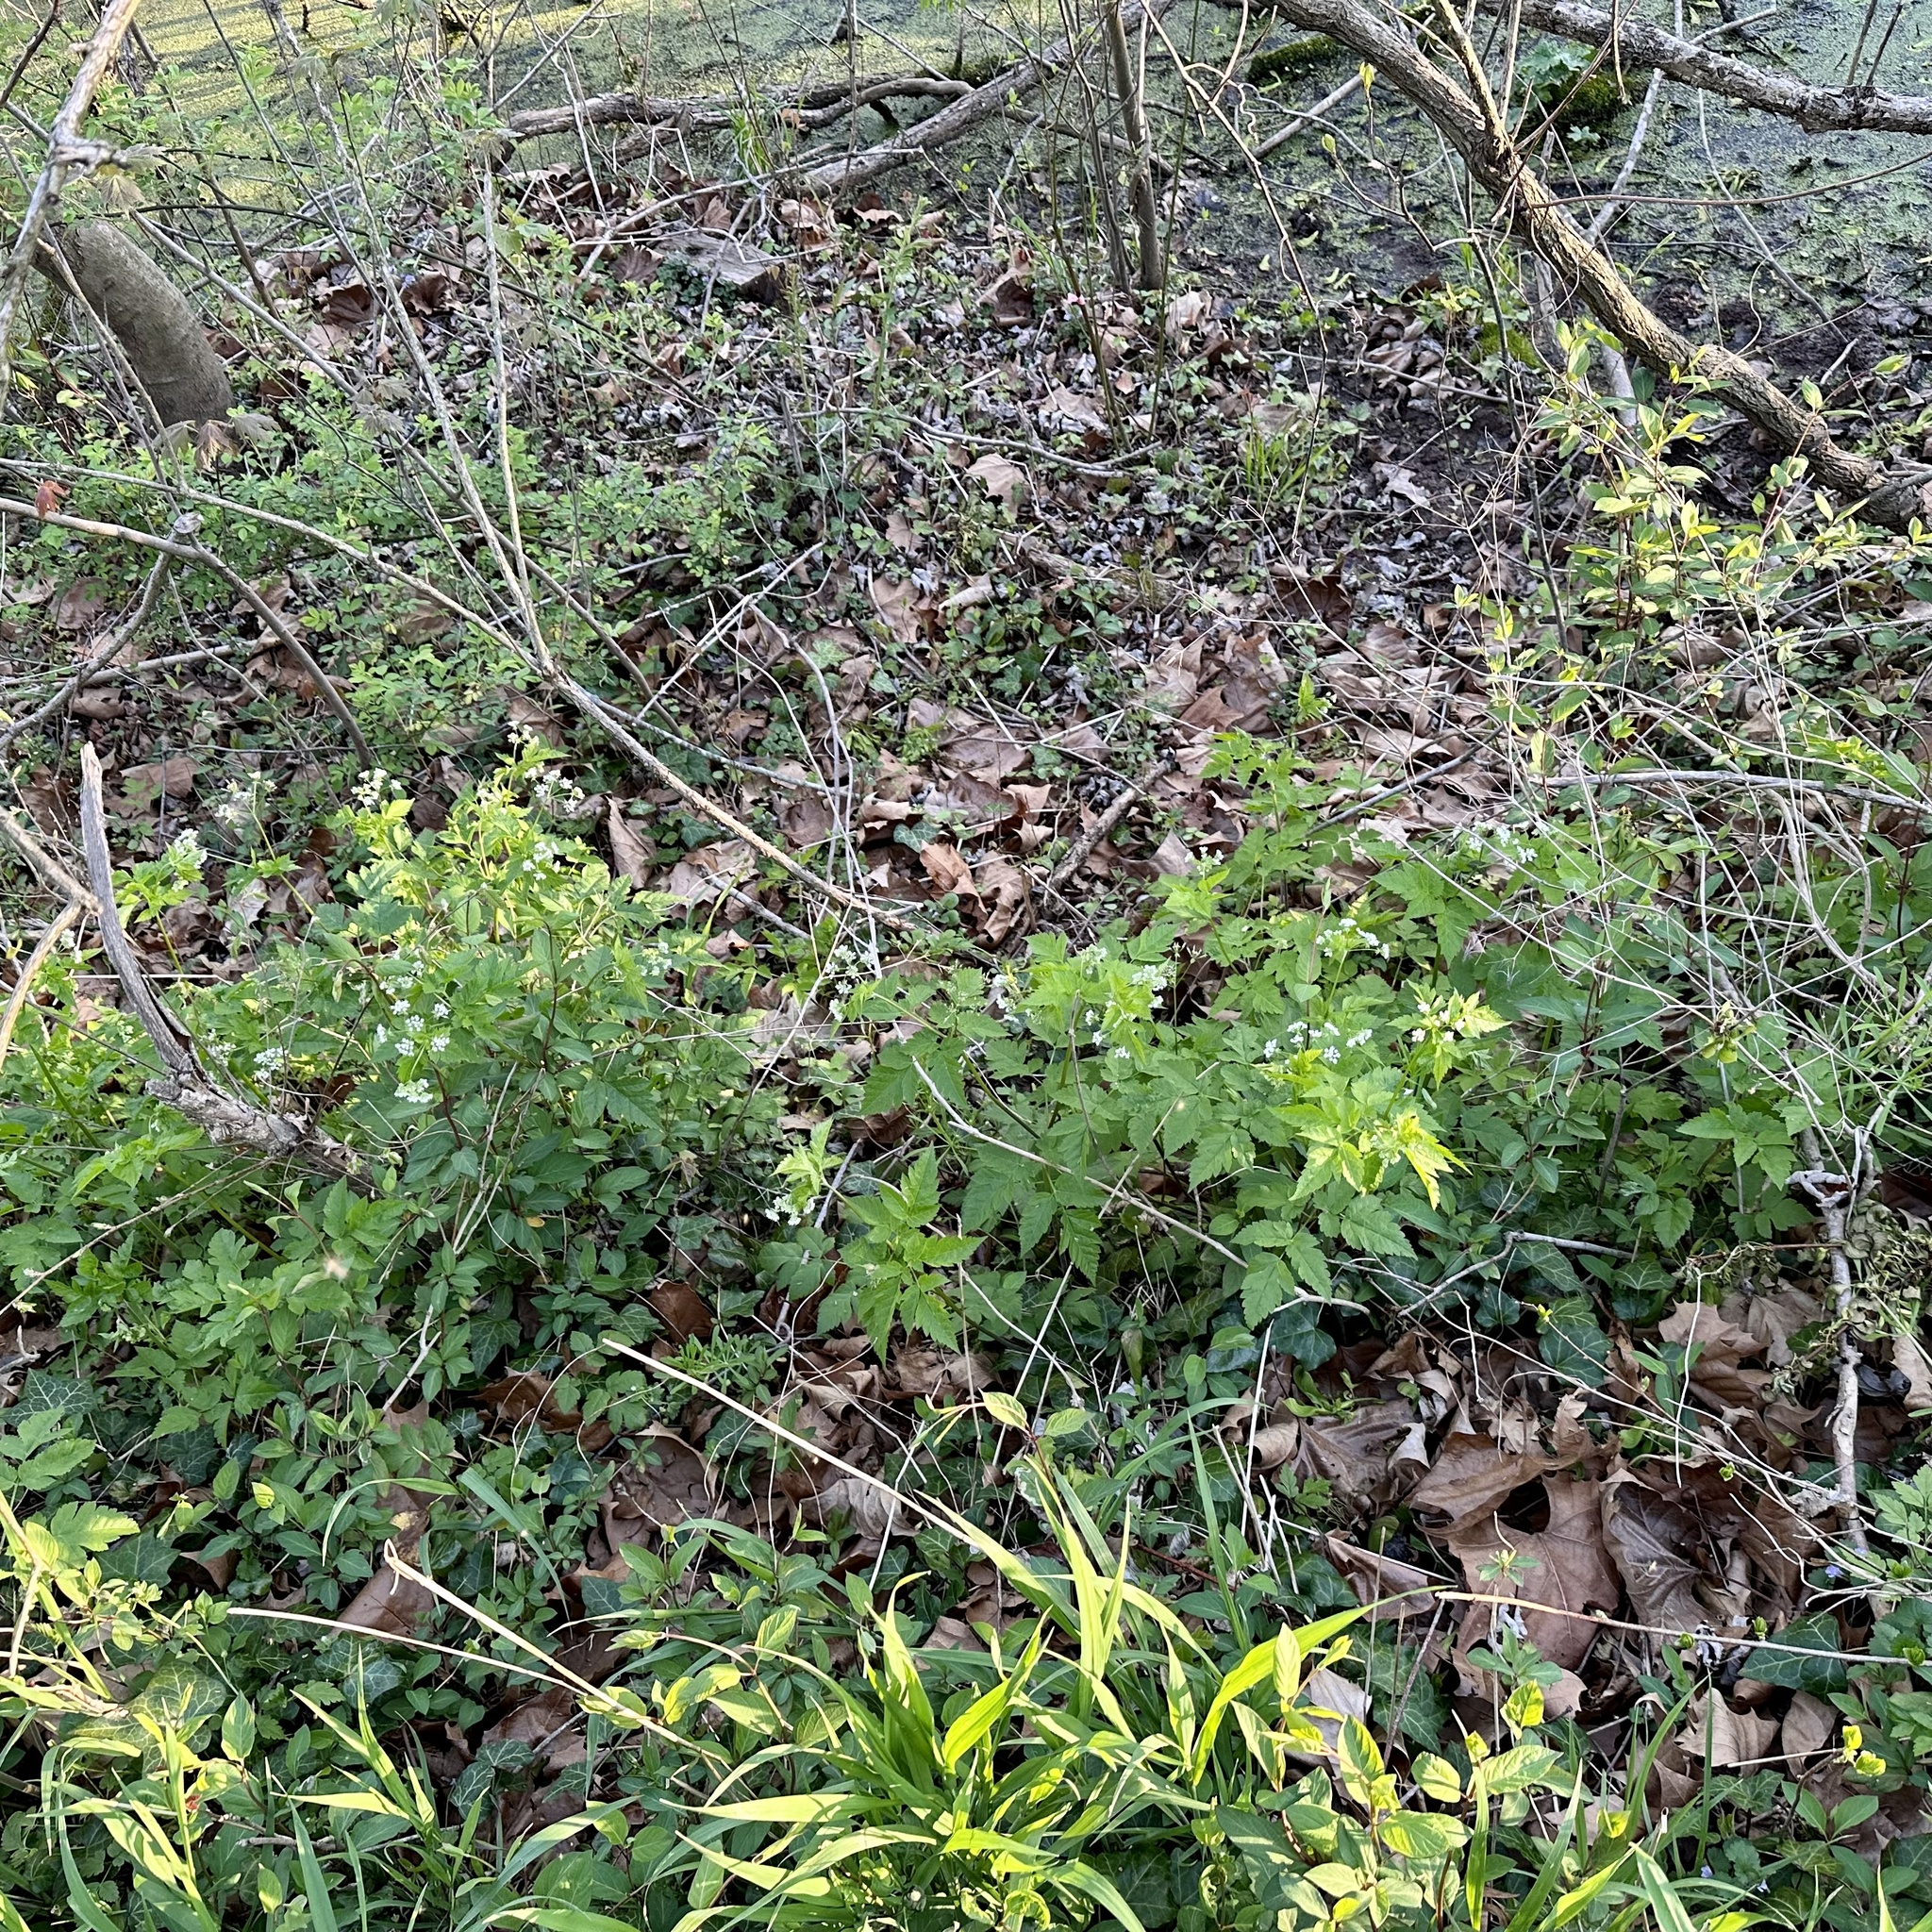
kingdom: Plantae
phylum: Tracheophyta
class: Magnoliopsida
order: Apiales
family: Apiaceae
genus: Osmorhiza
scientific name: Osmorhiza longistylis
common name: Smooth sweet cicely
